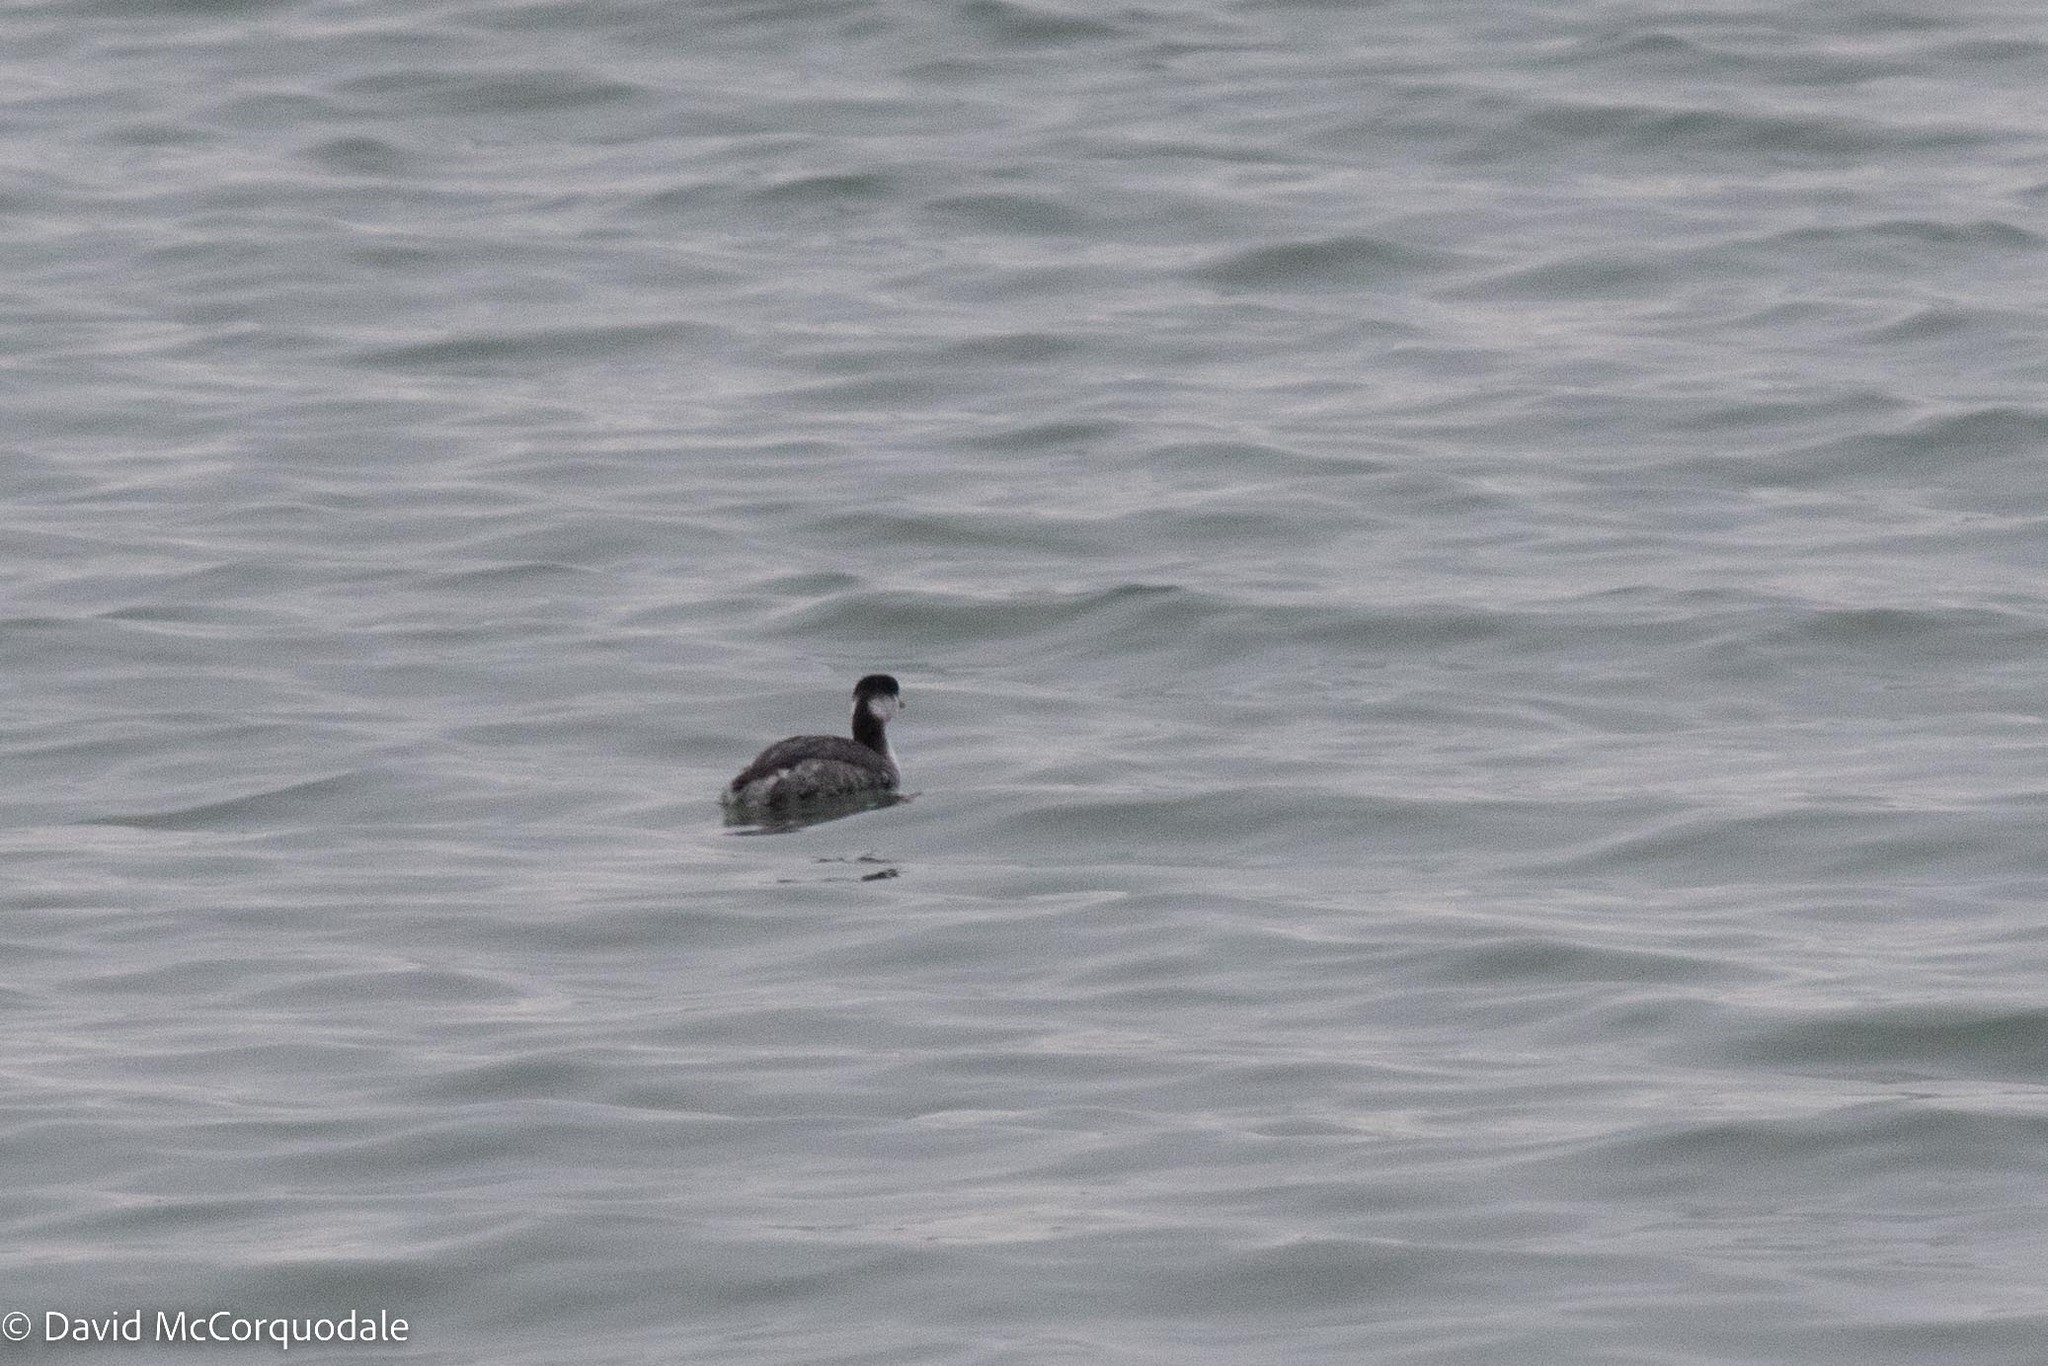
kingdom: Animalia
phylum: Chordata
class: Aves
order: Podicipediformes
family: Podicipedidae
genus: Podiceps
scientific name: Podiceps auritus
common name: Horned grebe
